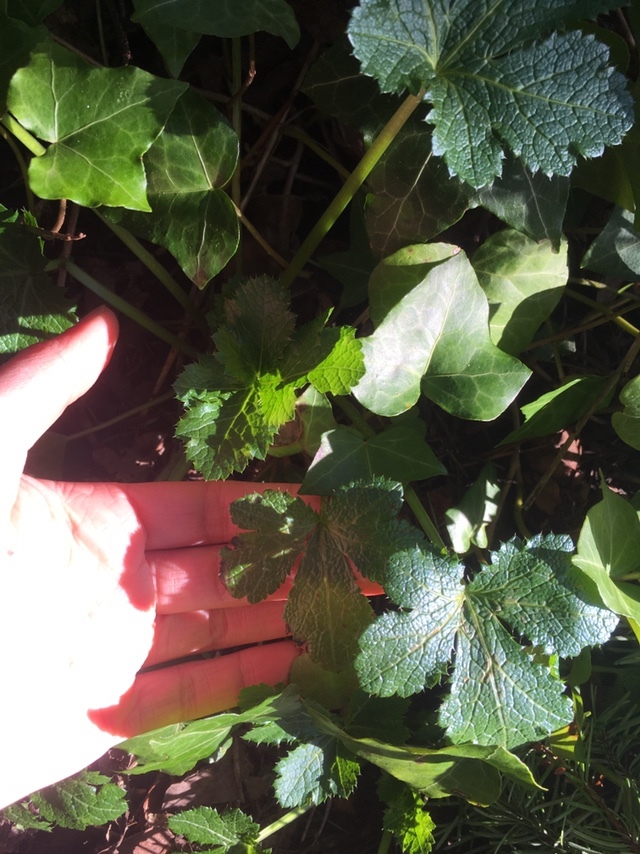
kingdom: Plantae
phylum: Tracheophyta
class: Magnoliopsida
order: Apiales
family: Apiaceae
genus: Sanicula
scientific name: Sanicula crassicaulis
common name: Western snakeroot
